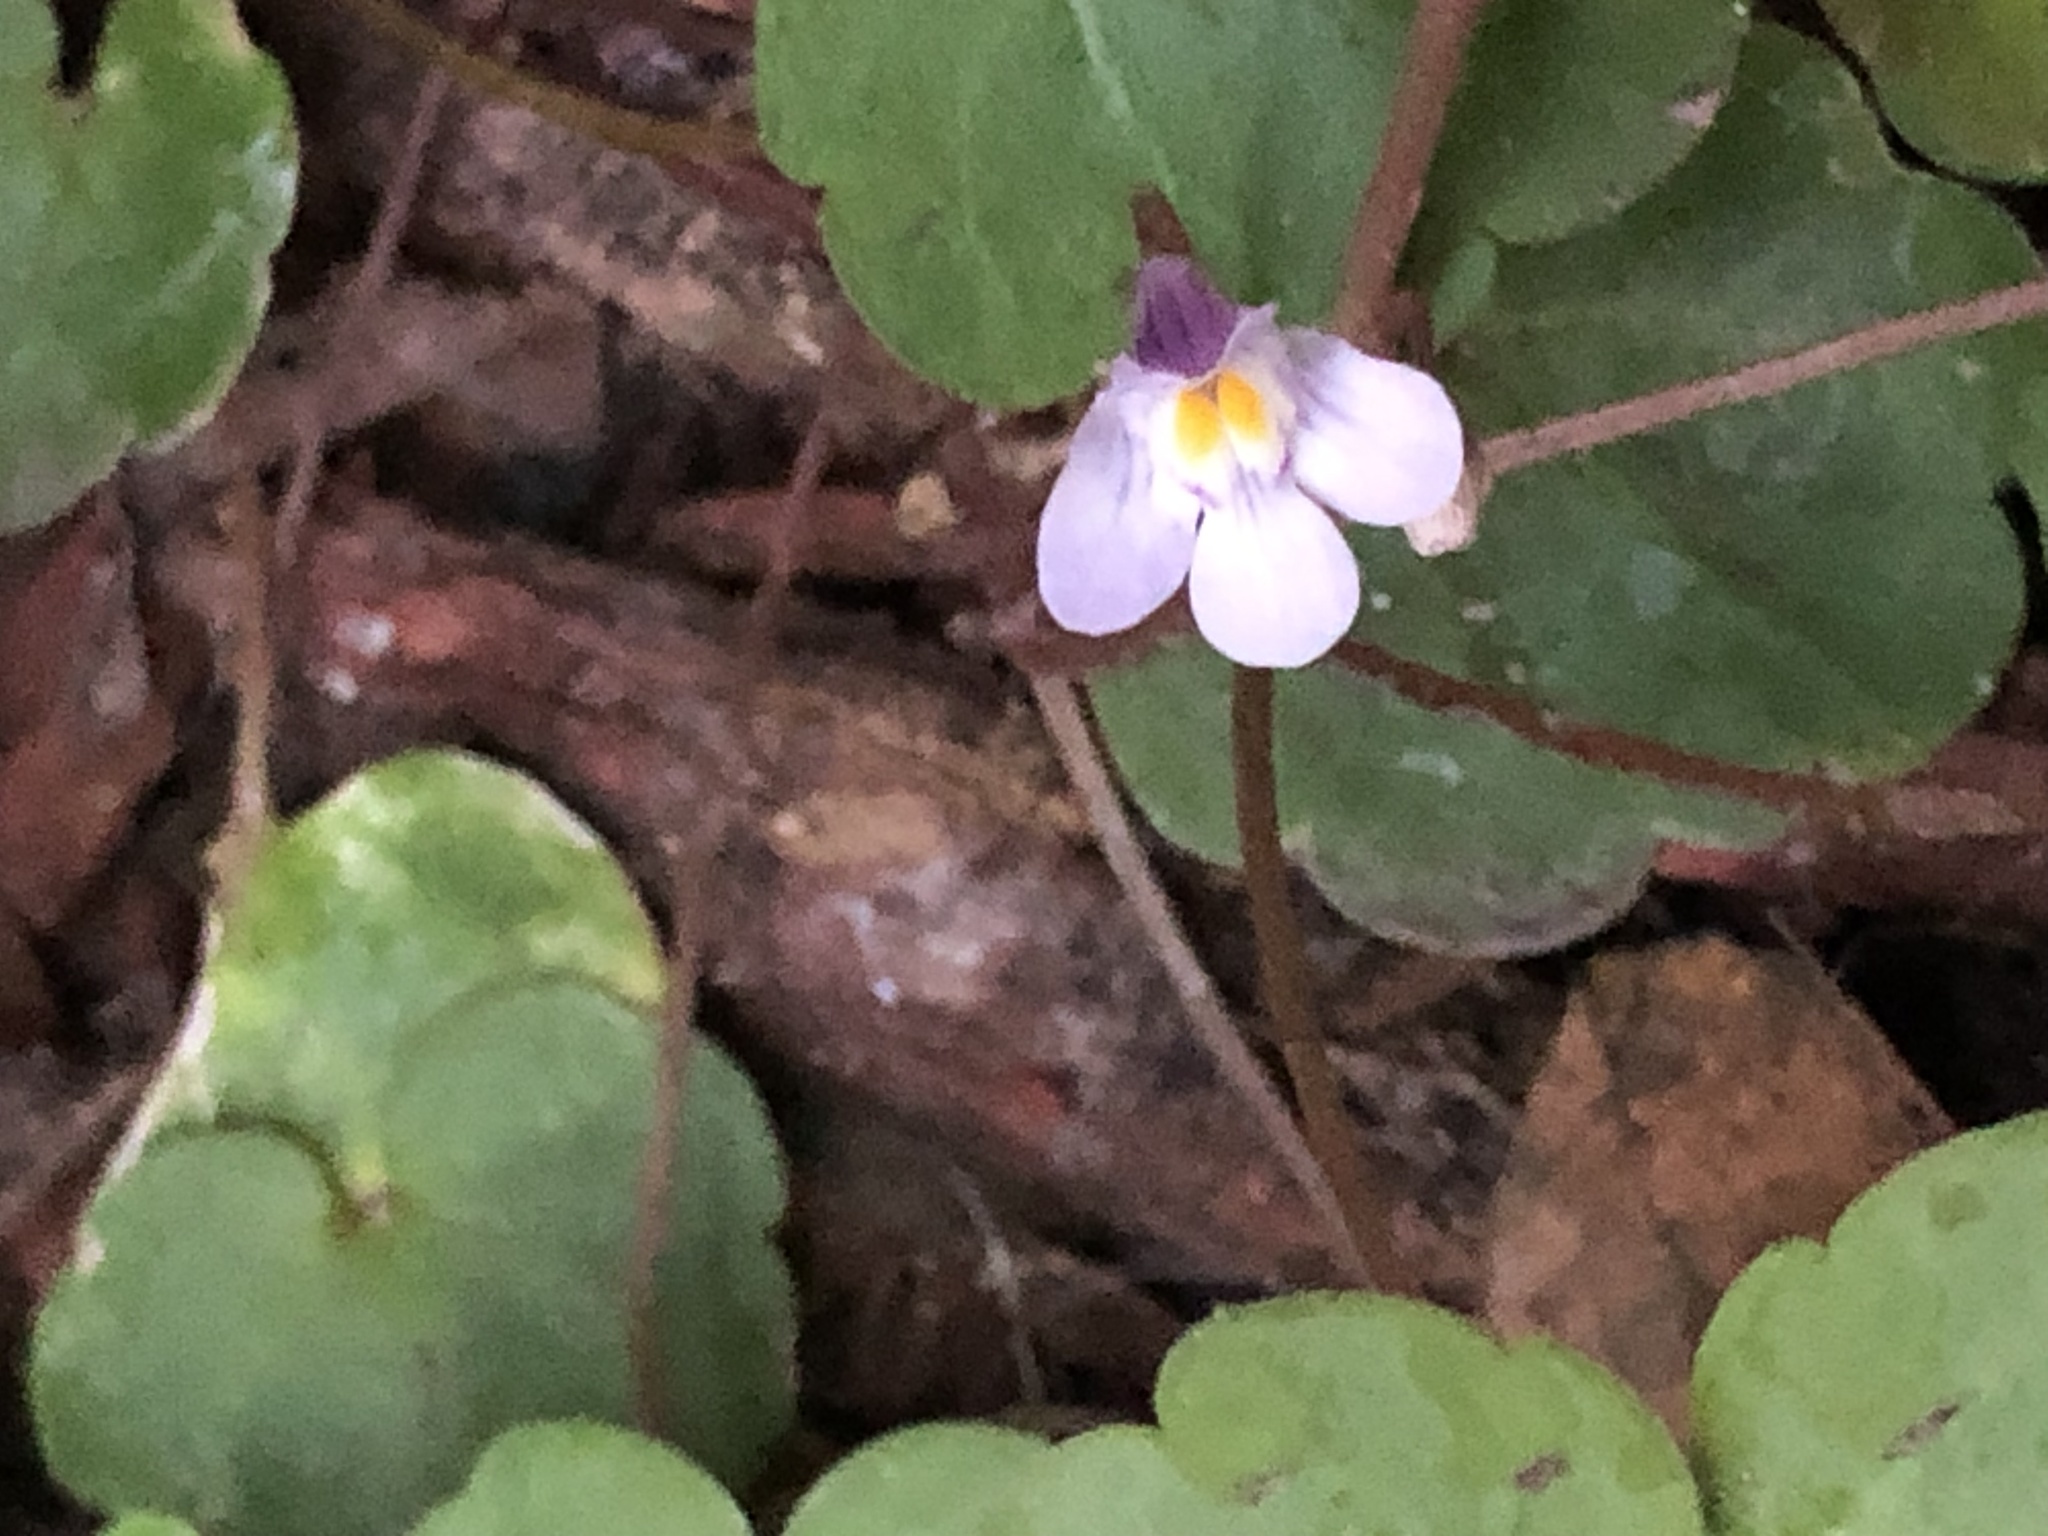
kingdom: Plantae
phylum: Tracheophyta
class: Magnoliopsida
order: Lamiales
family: Plantaginaceae
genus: Cymbalaria
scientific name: Cymbalaria muralis
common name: Ivy-leaved toadflax
